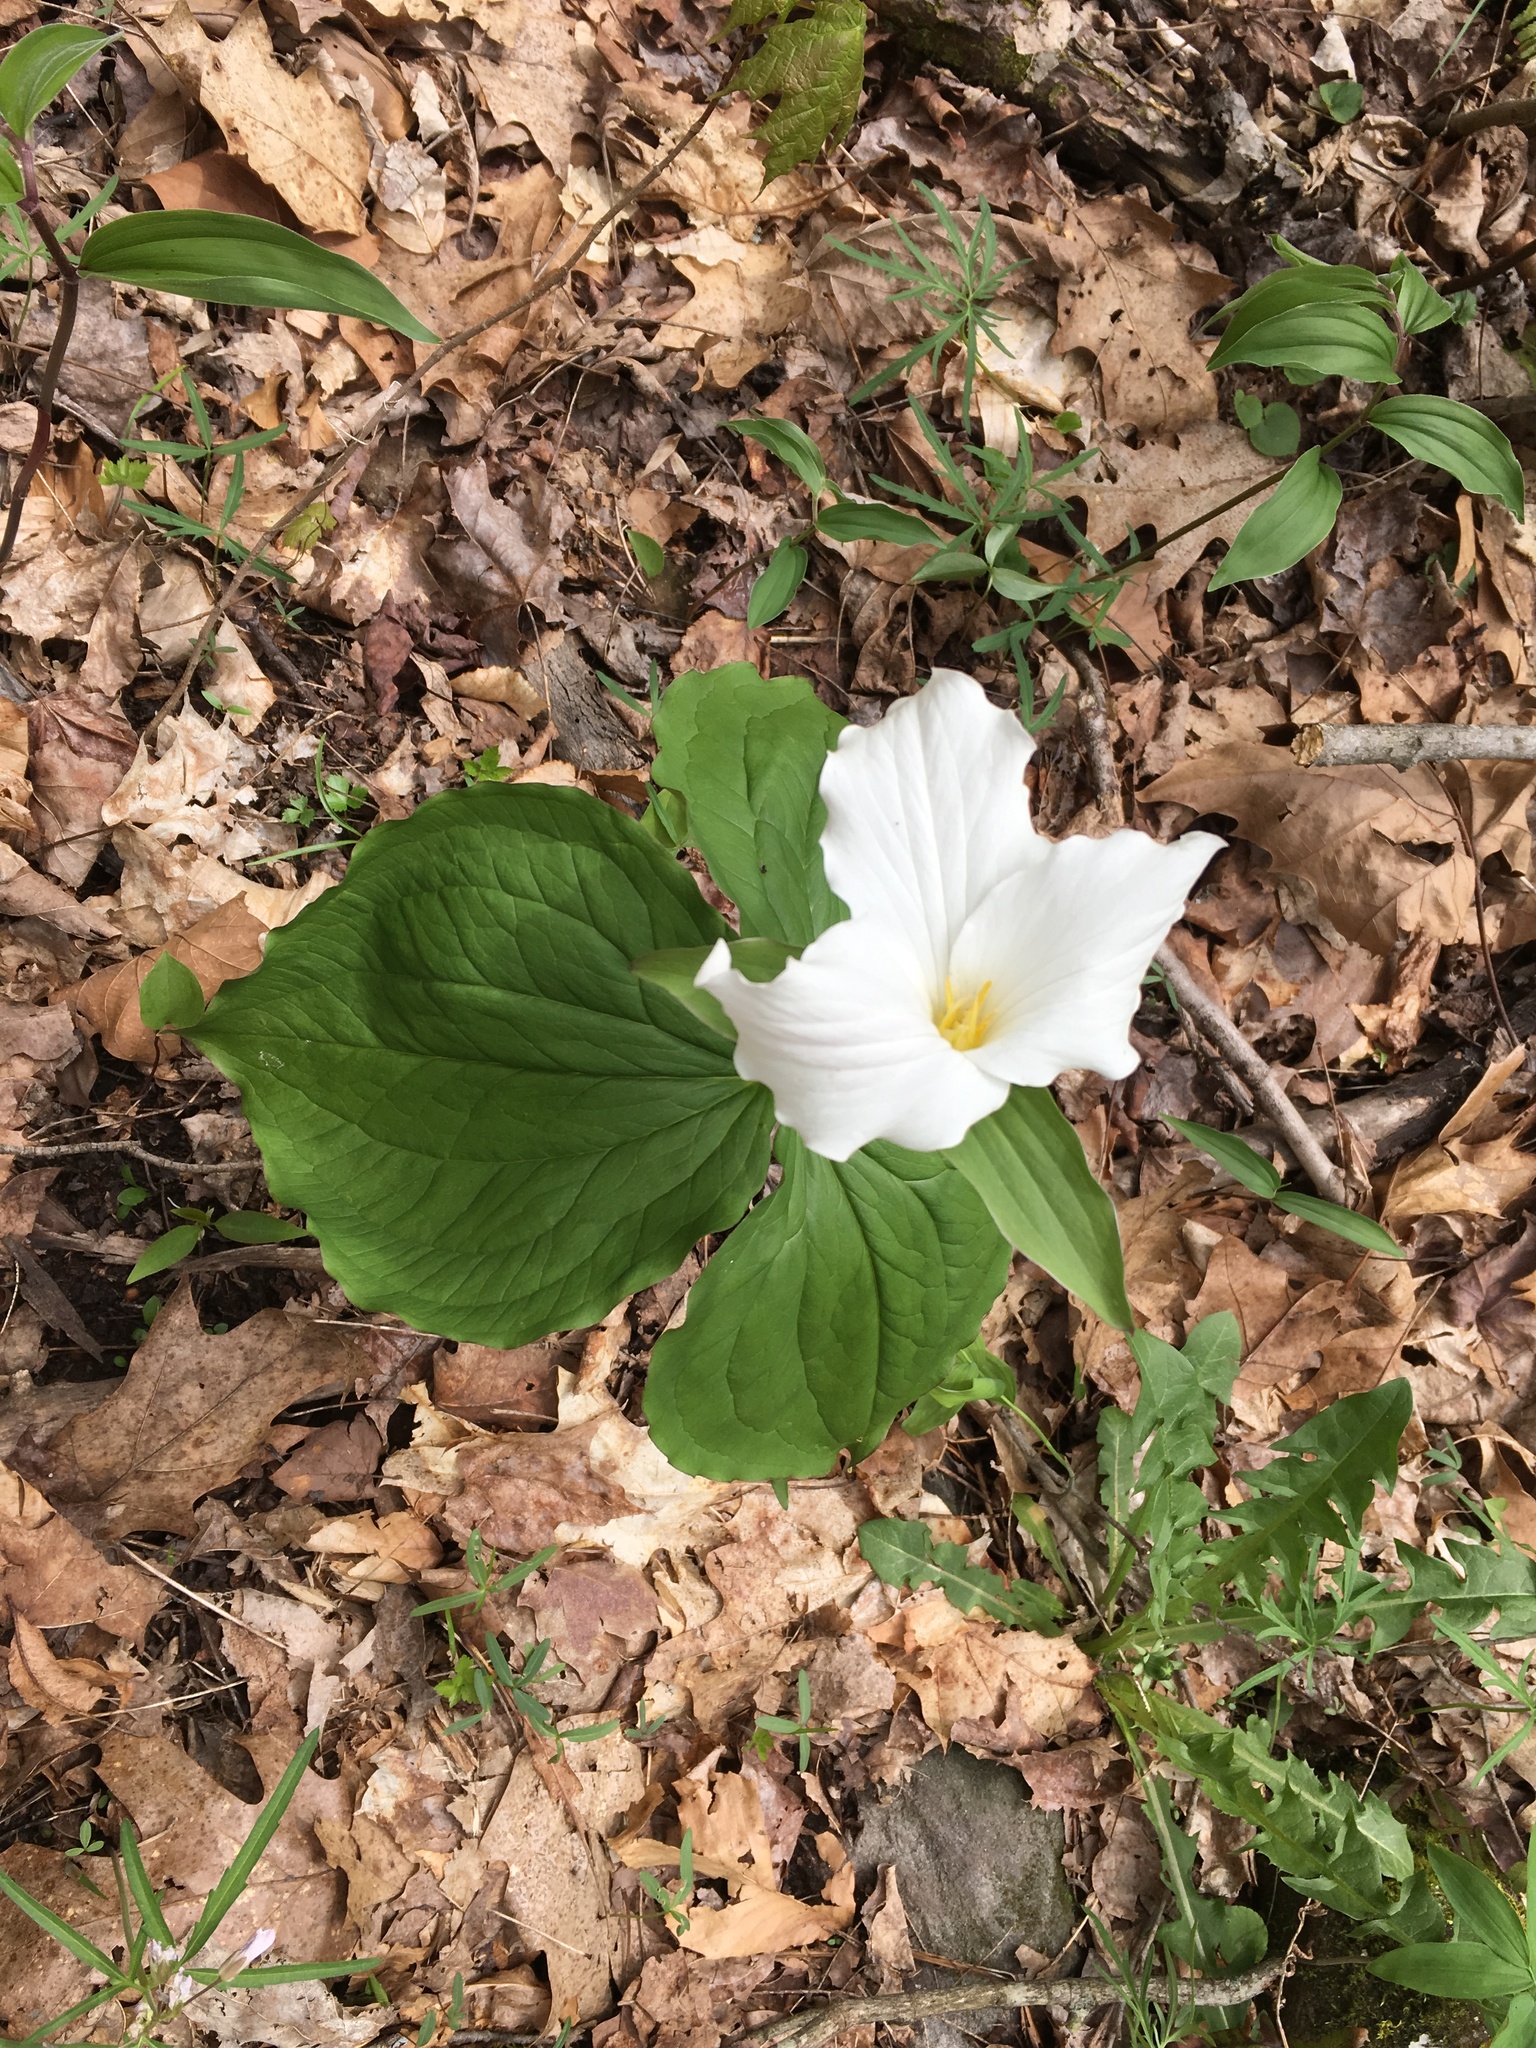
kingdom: Plantae
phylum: Tracheophyta
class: Liliopsida
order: Liliales
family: Melanthiaceae
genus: Trillium
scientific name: Trillium grandiflorum
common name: Great white trillium
